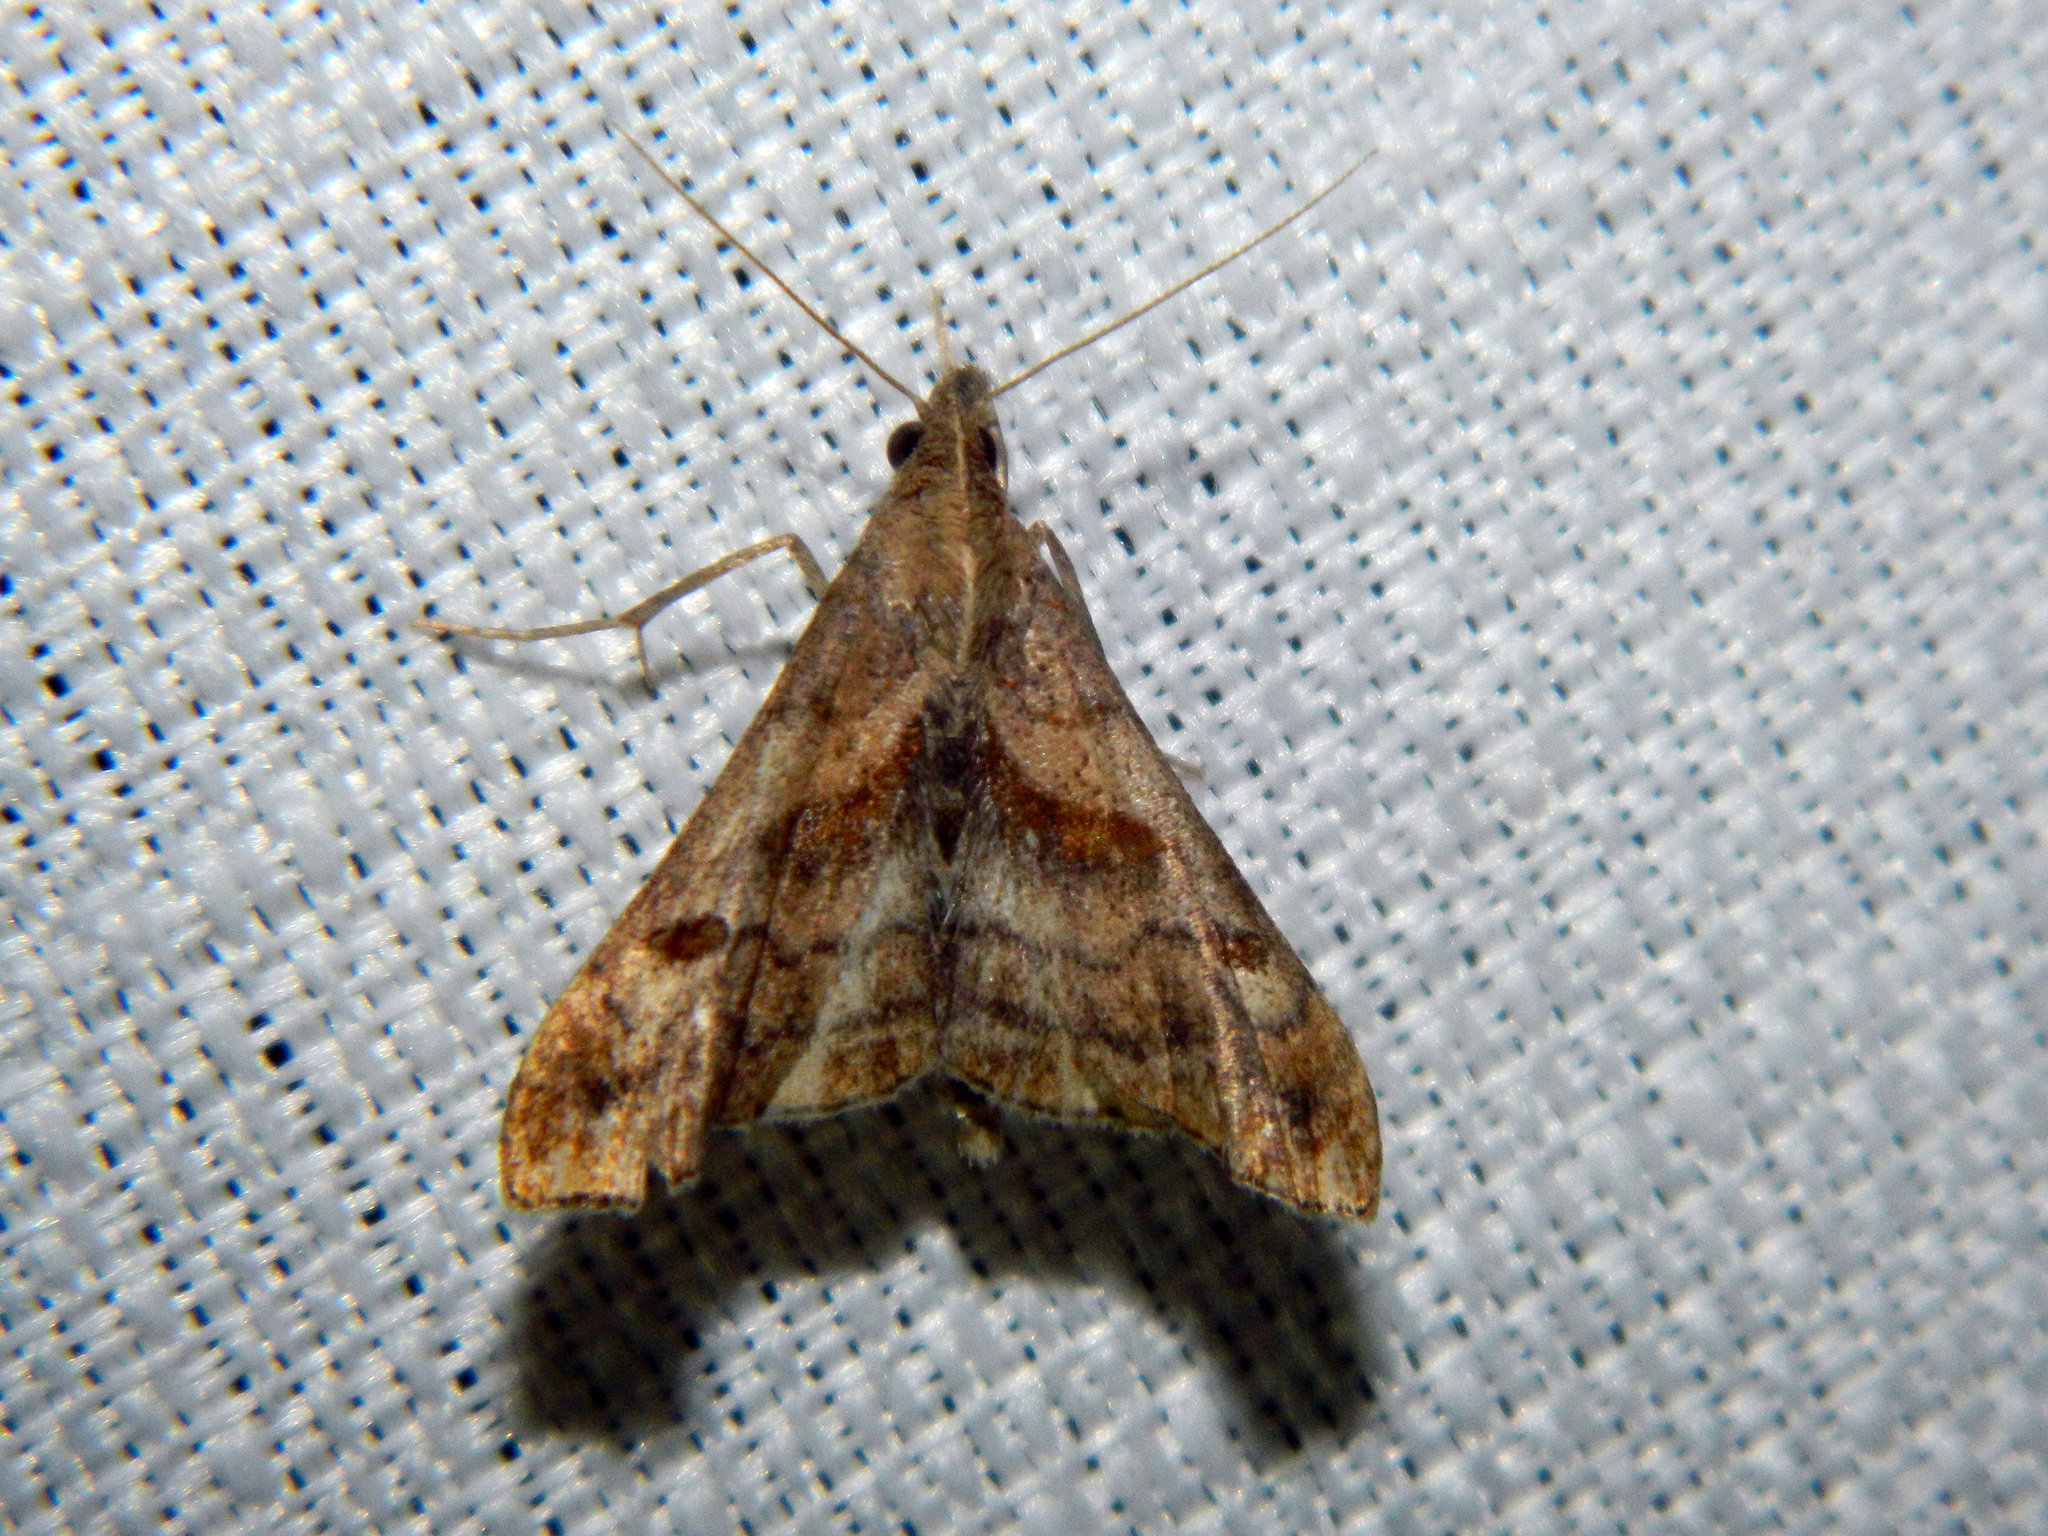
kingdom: Animalia
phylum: Arthropoda
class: Insecta
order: Lepidoptera
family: Erebidae
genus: Palthis
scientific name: Palthis angulalis
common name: Dark-spotted palthis moth
